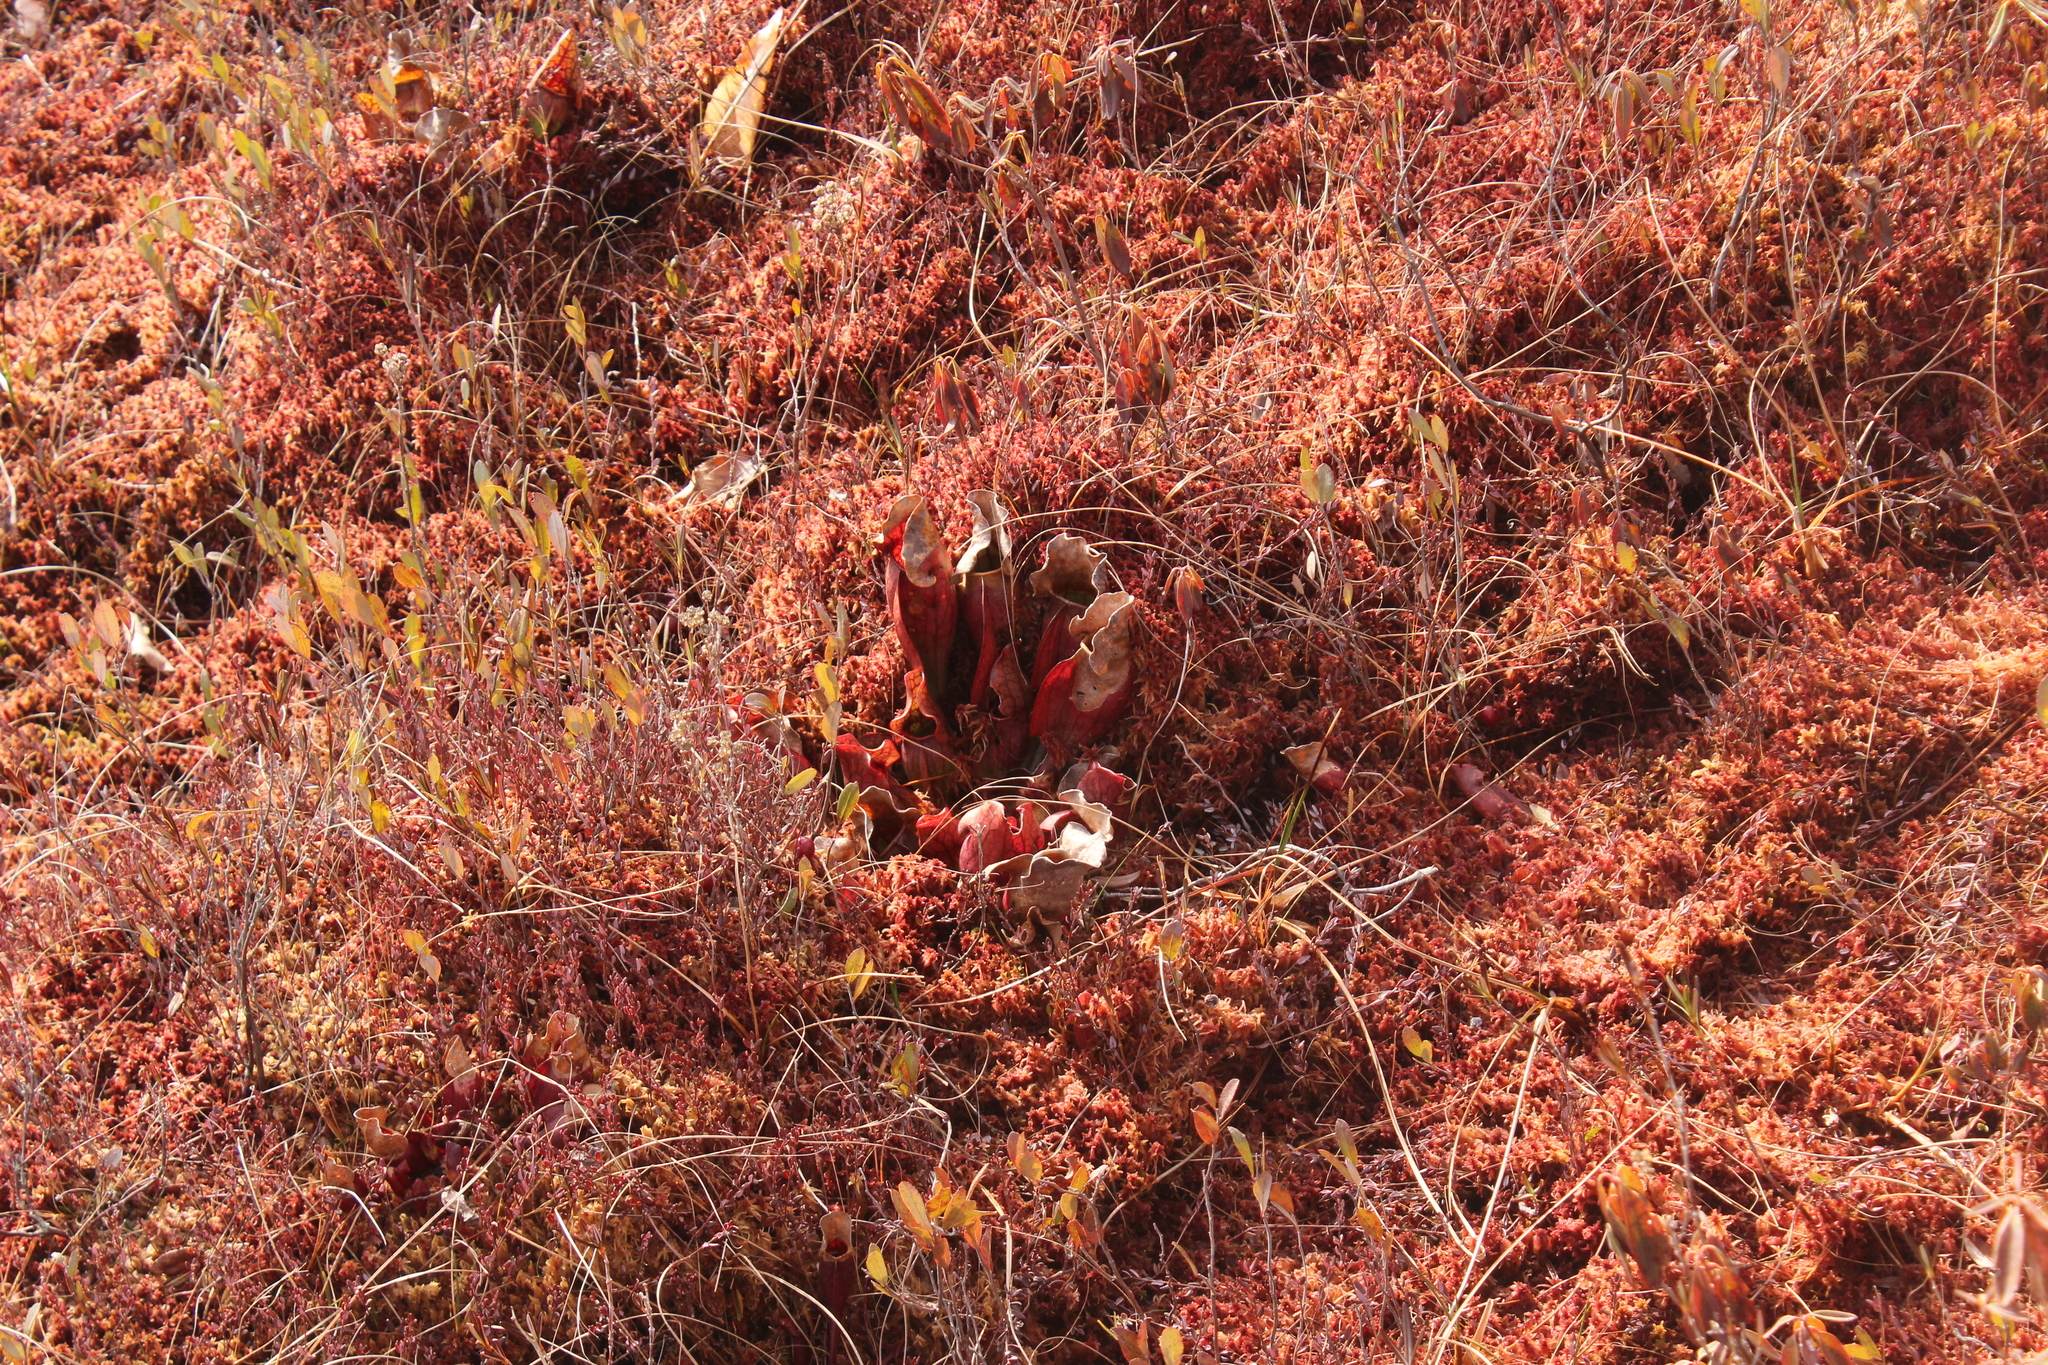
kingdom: Plantae
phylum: Tracheophyta
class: Magnoliopsida
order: Ericales
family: Sarraceniaceae
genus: Sarracenia
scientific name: Sarracenia purpurea
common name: Pitcherplant
